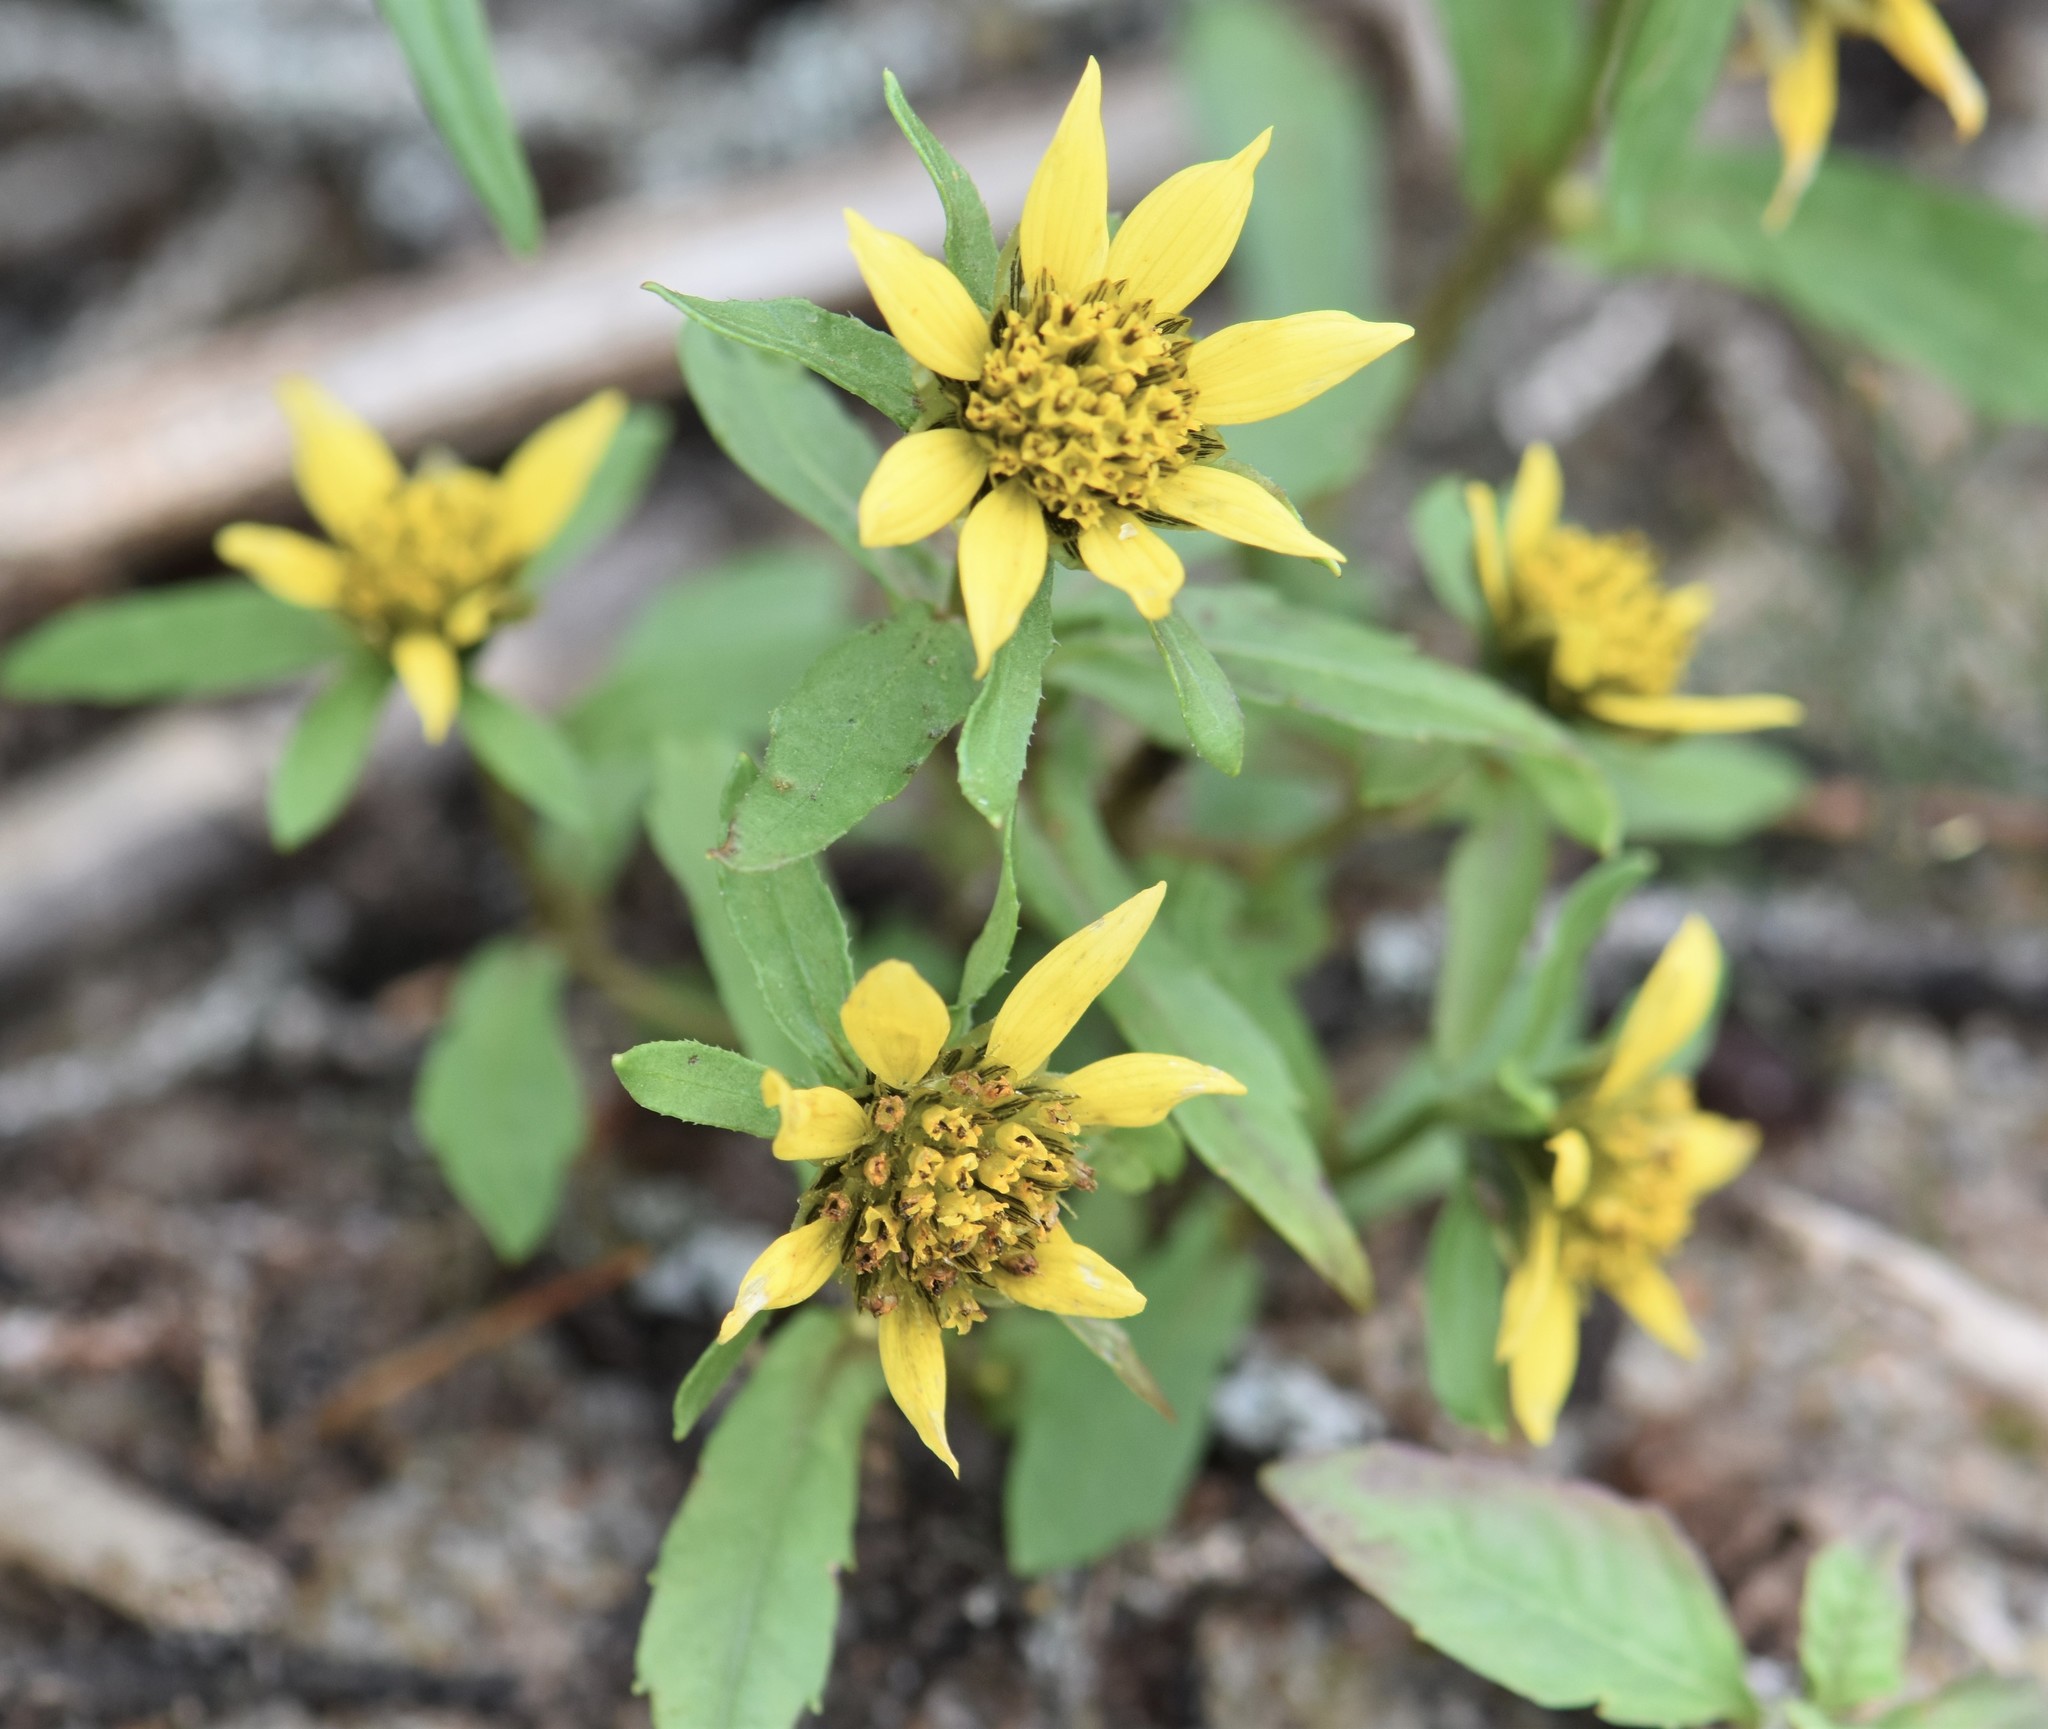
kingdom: Plantae
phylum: Tracheophyta
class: Magnoliopsida
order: Asterales
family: Asteraceae
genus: Bidens
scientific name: Bidens cernua
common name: Nodding bur-marigold
